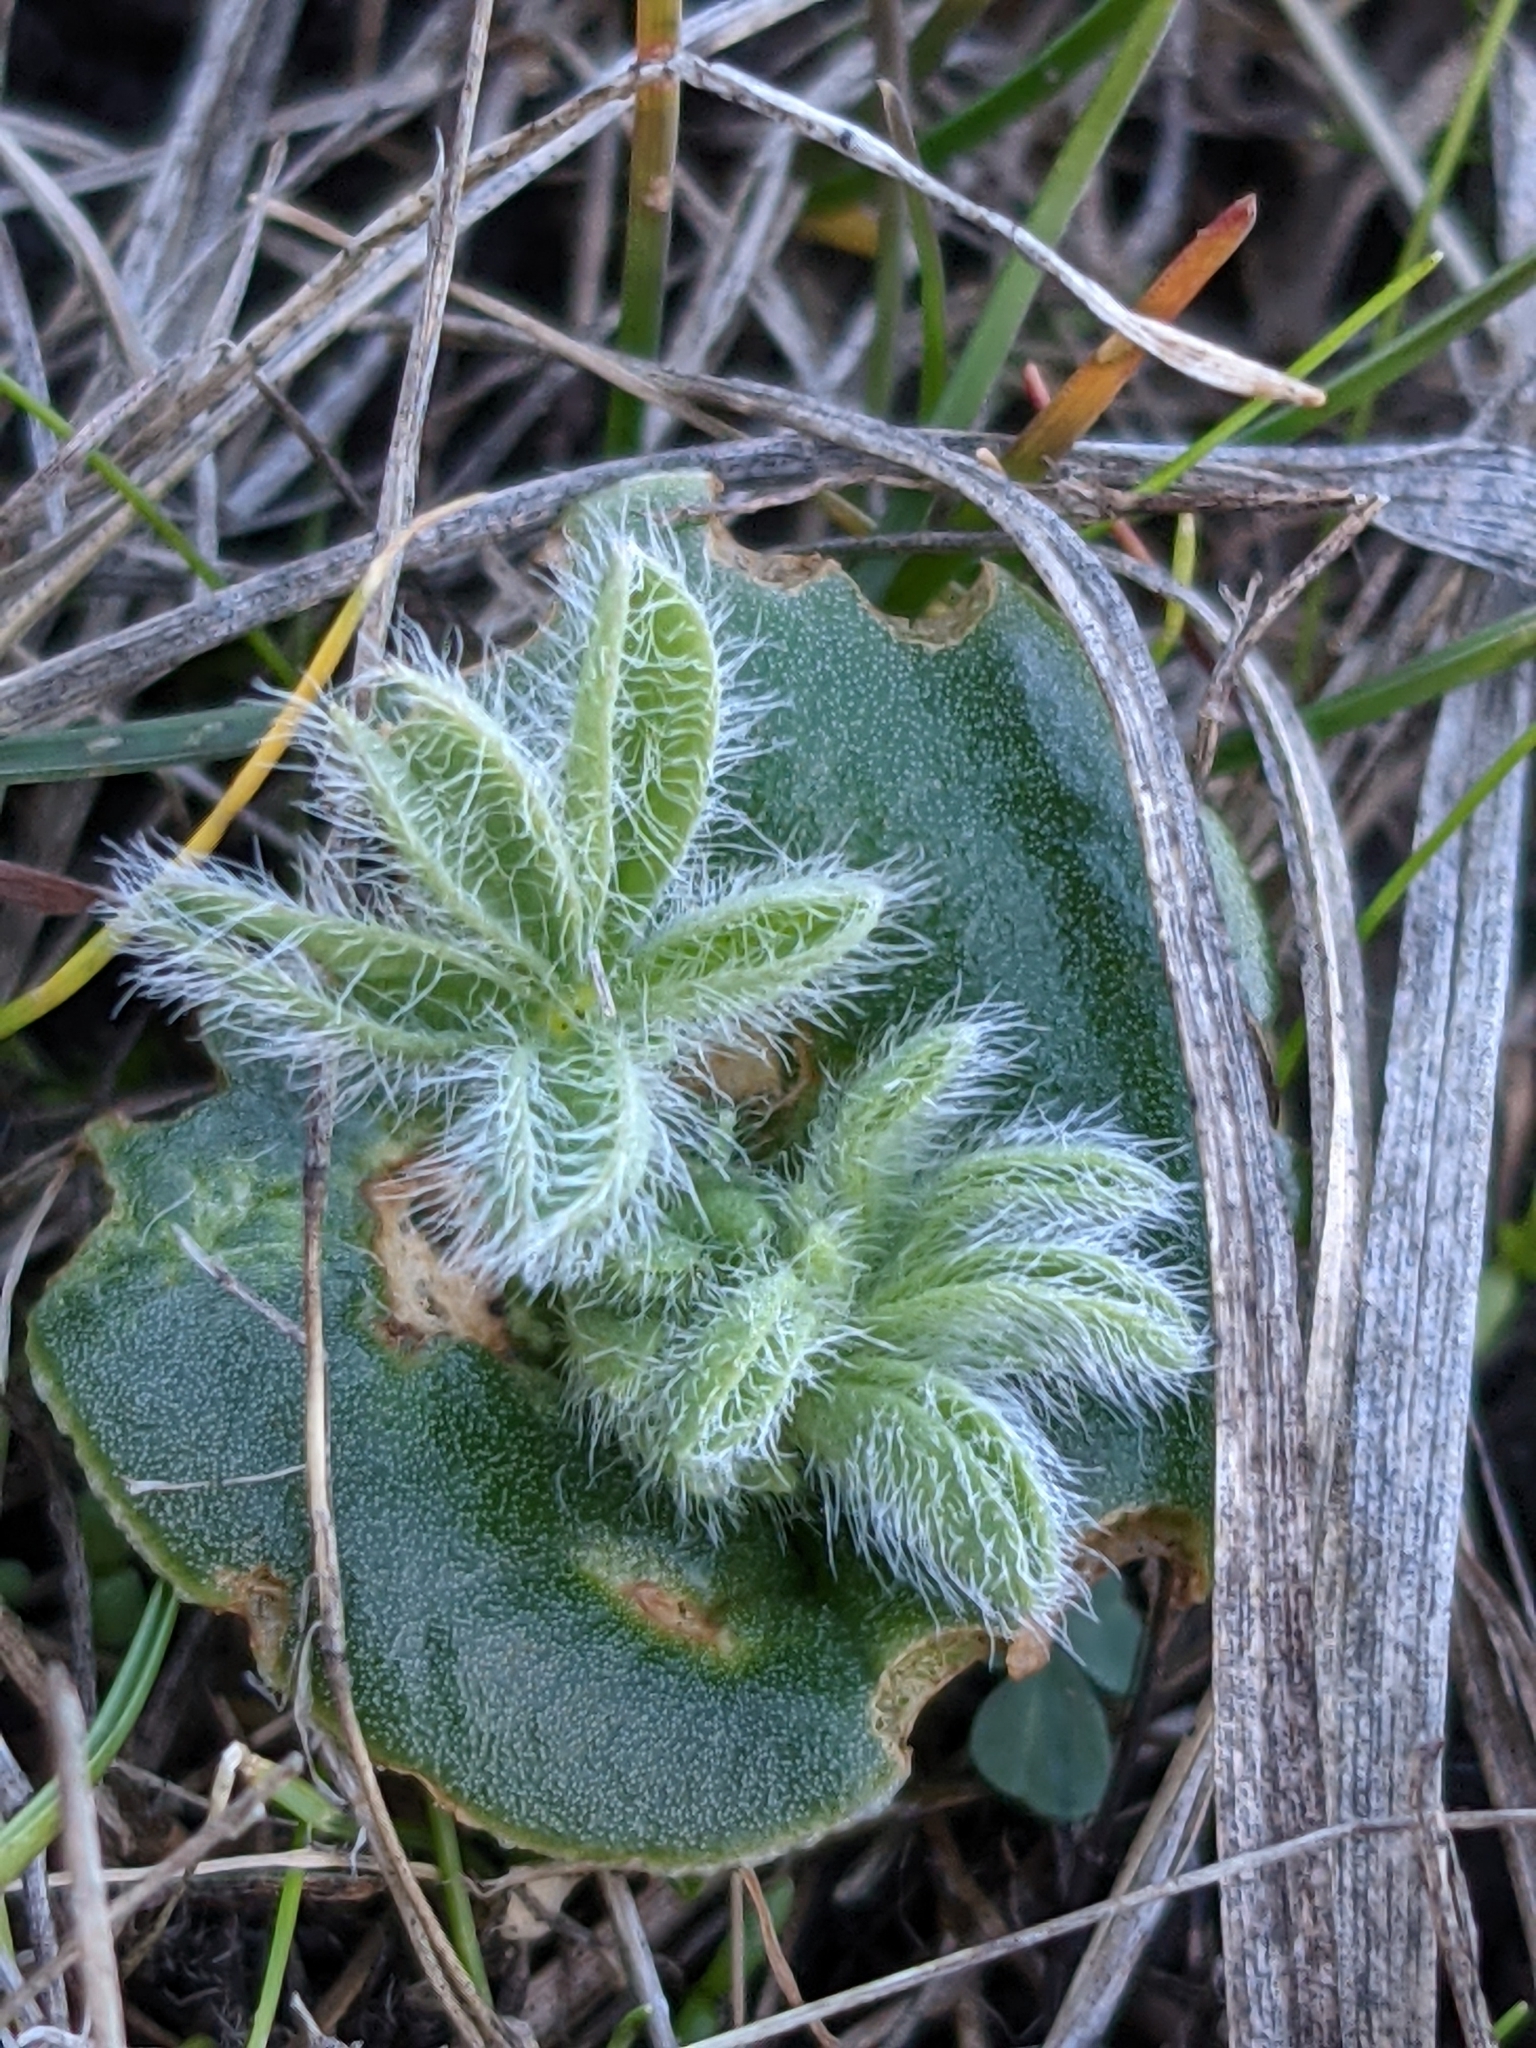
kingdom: Plantae
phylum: Tracheophyta
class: Magnoliopsida
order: Fabales
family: Fabaceae
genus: Lupinus
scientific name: Lupinus densiflorus
